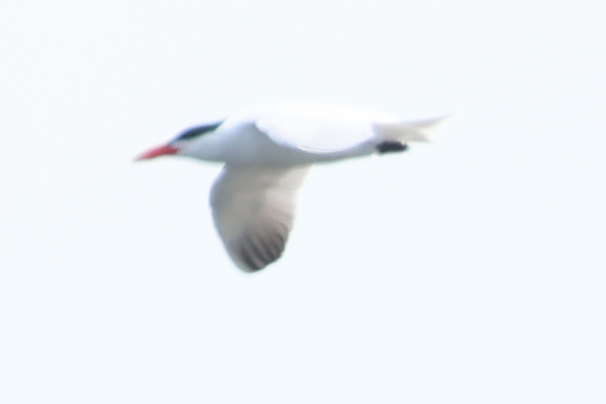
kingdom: Animalia
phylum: Chordata
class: Aves
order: Charadriiformes
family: Laridae
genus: Hydroprogne
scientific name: Hydroprogne caspia
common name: Caspian tern
